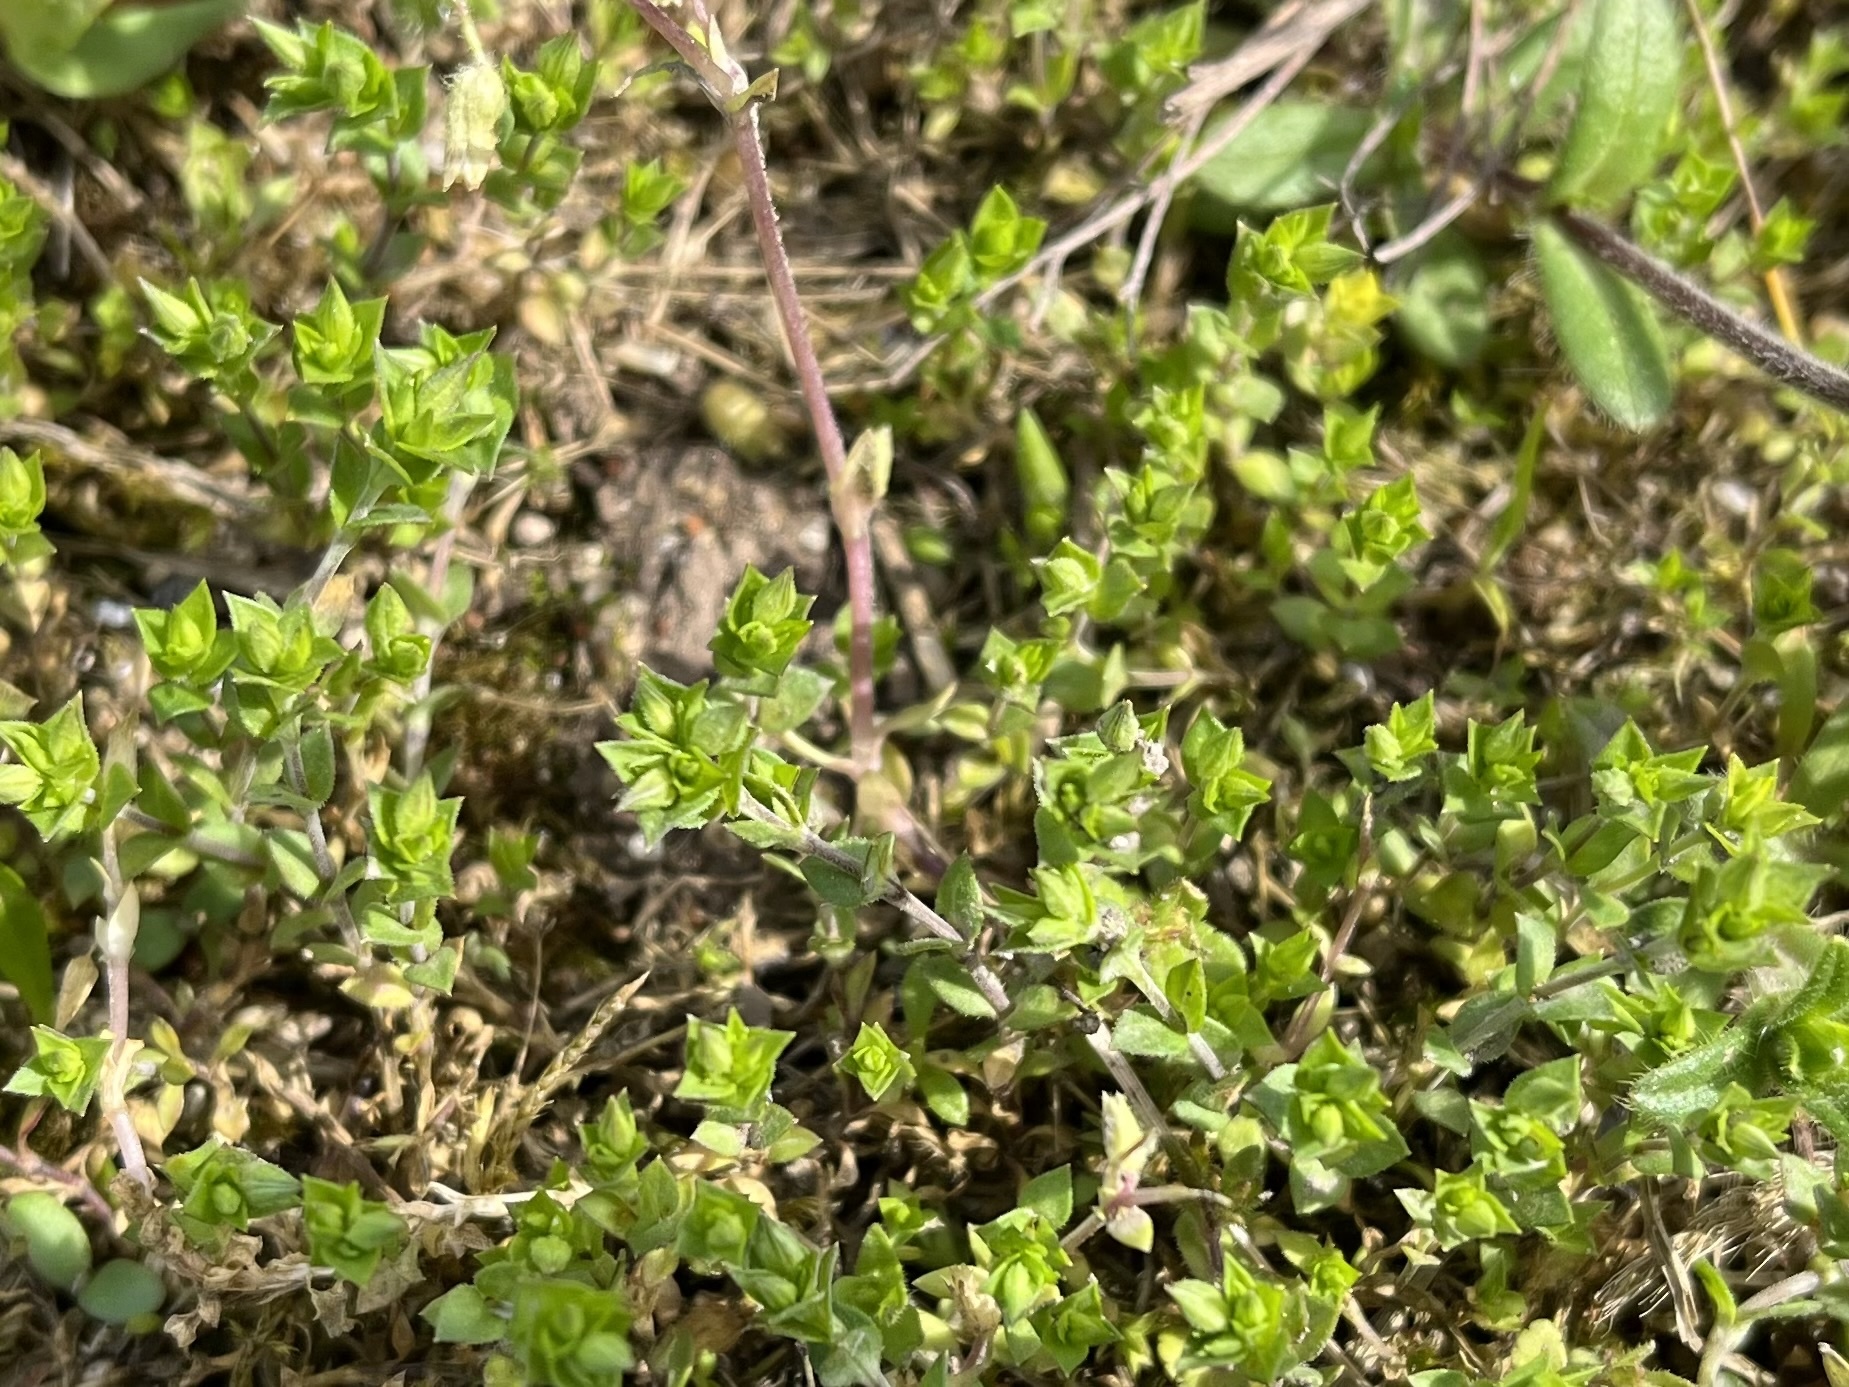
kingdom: Plantae
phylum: Tracheophyta
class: Magnoliopsida
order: Caryophyllales
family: Caryophyllaceae
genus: Arenaria
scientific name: Arenaria serpyllifolia
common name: Thyme-leaved sandwort
